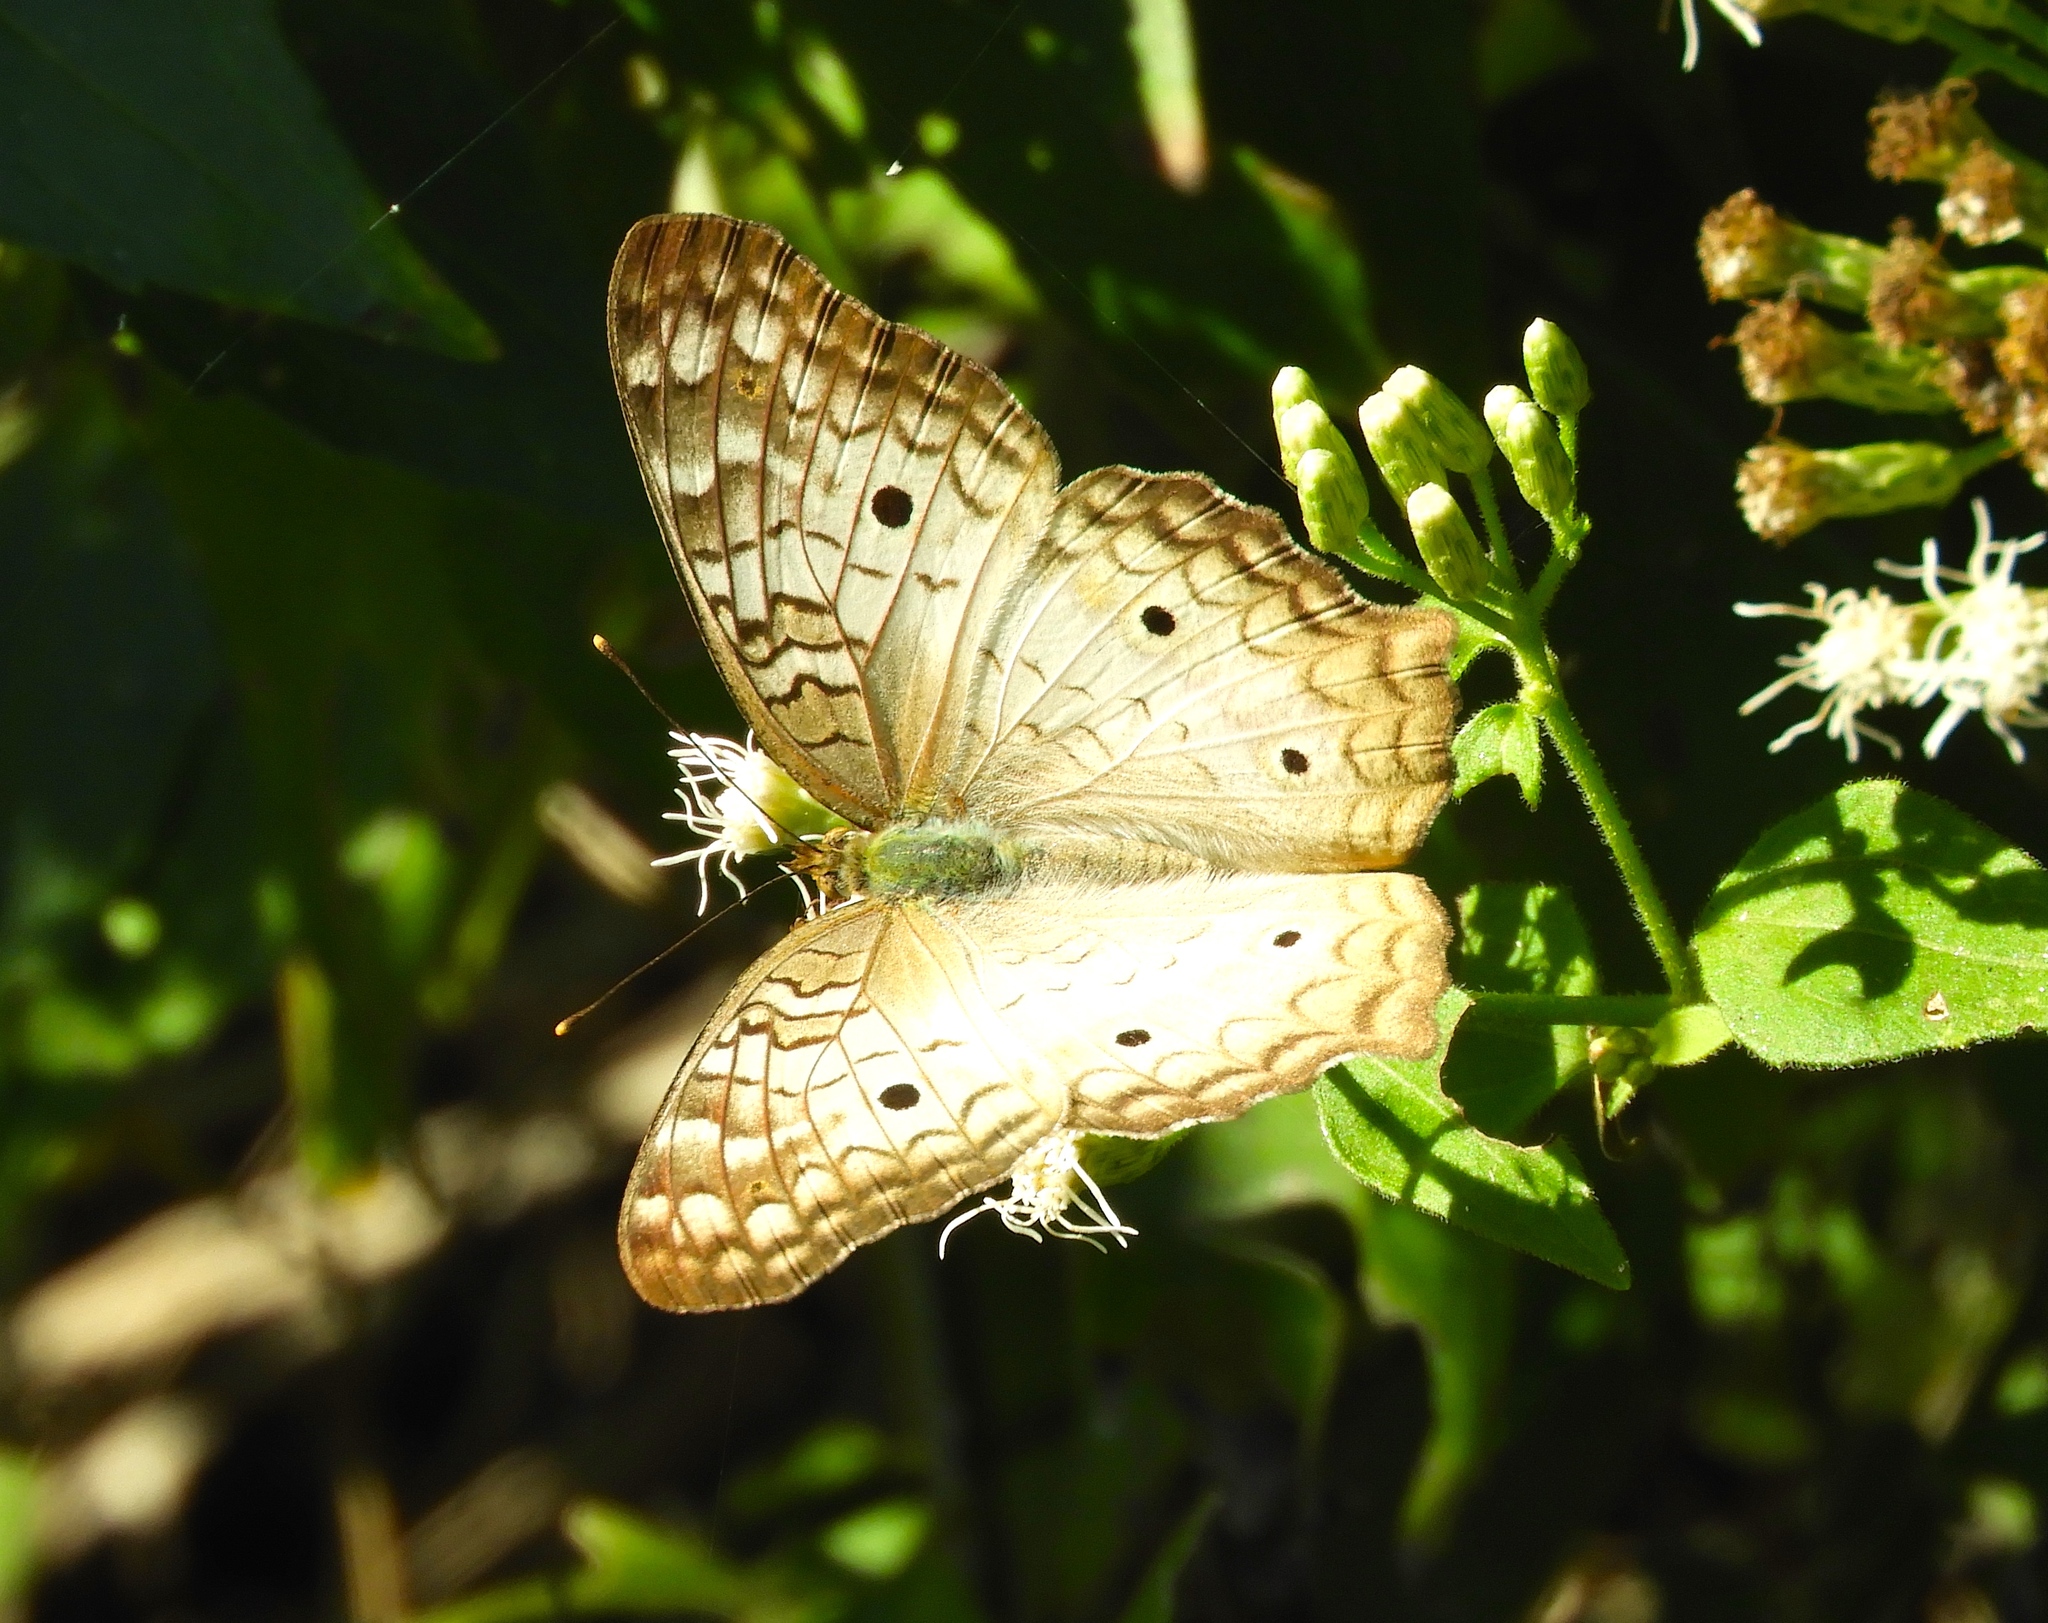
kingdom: Animalia
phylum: Arthropoda
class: Insecta
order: Lepidoptera
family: Nymphalidae
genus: Anartia
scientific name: Anartia jatrophae
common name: White peacock
